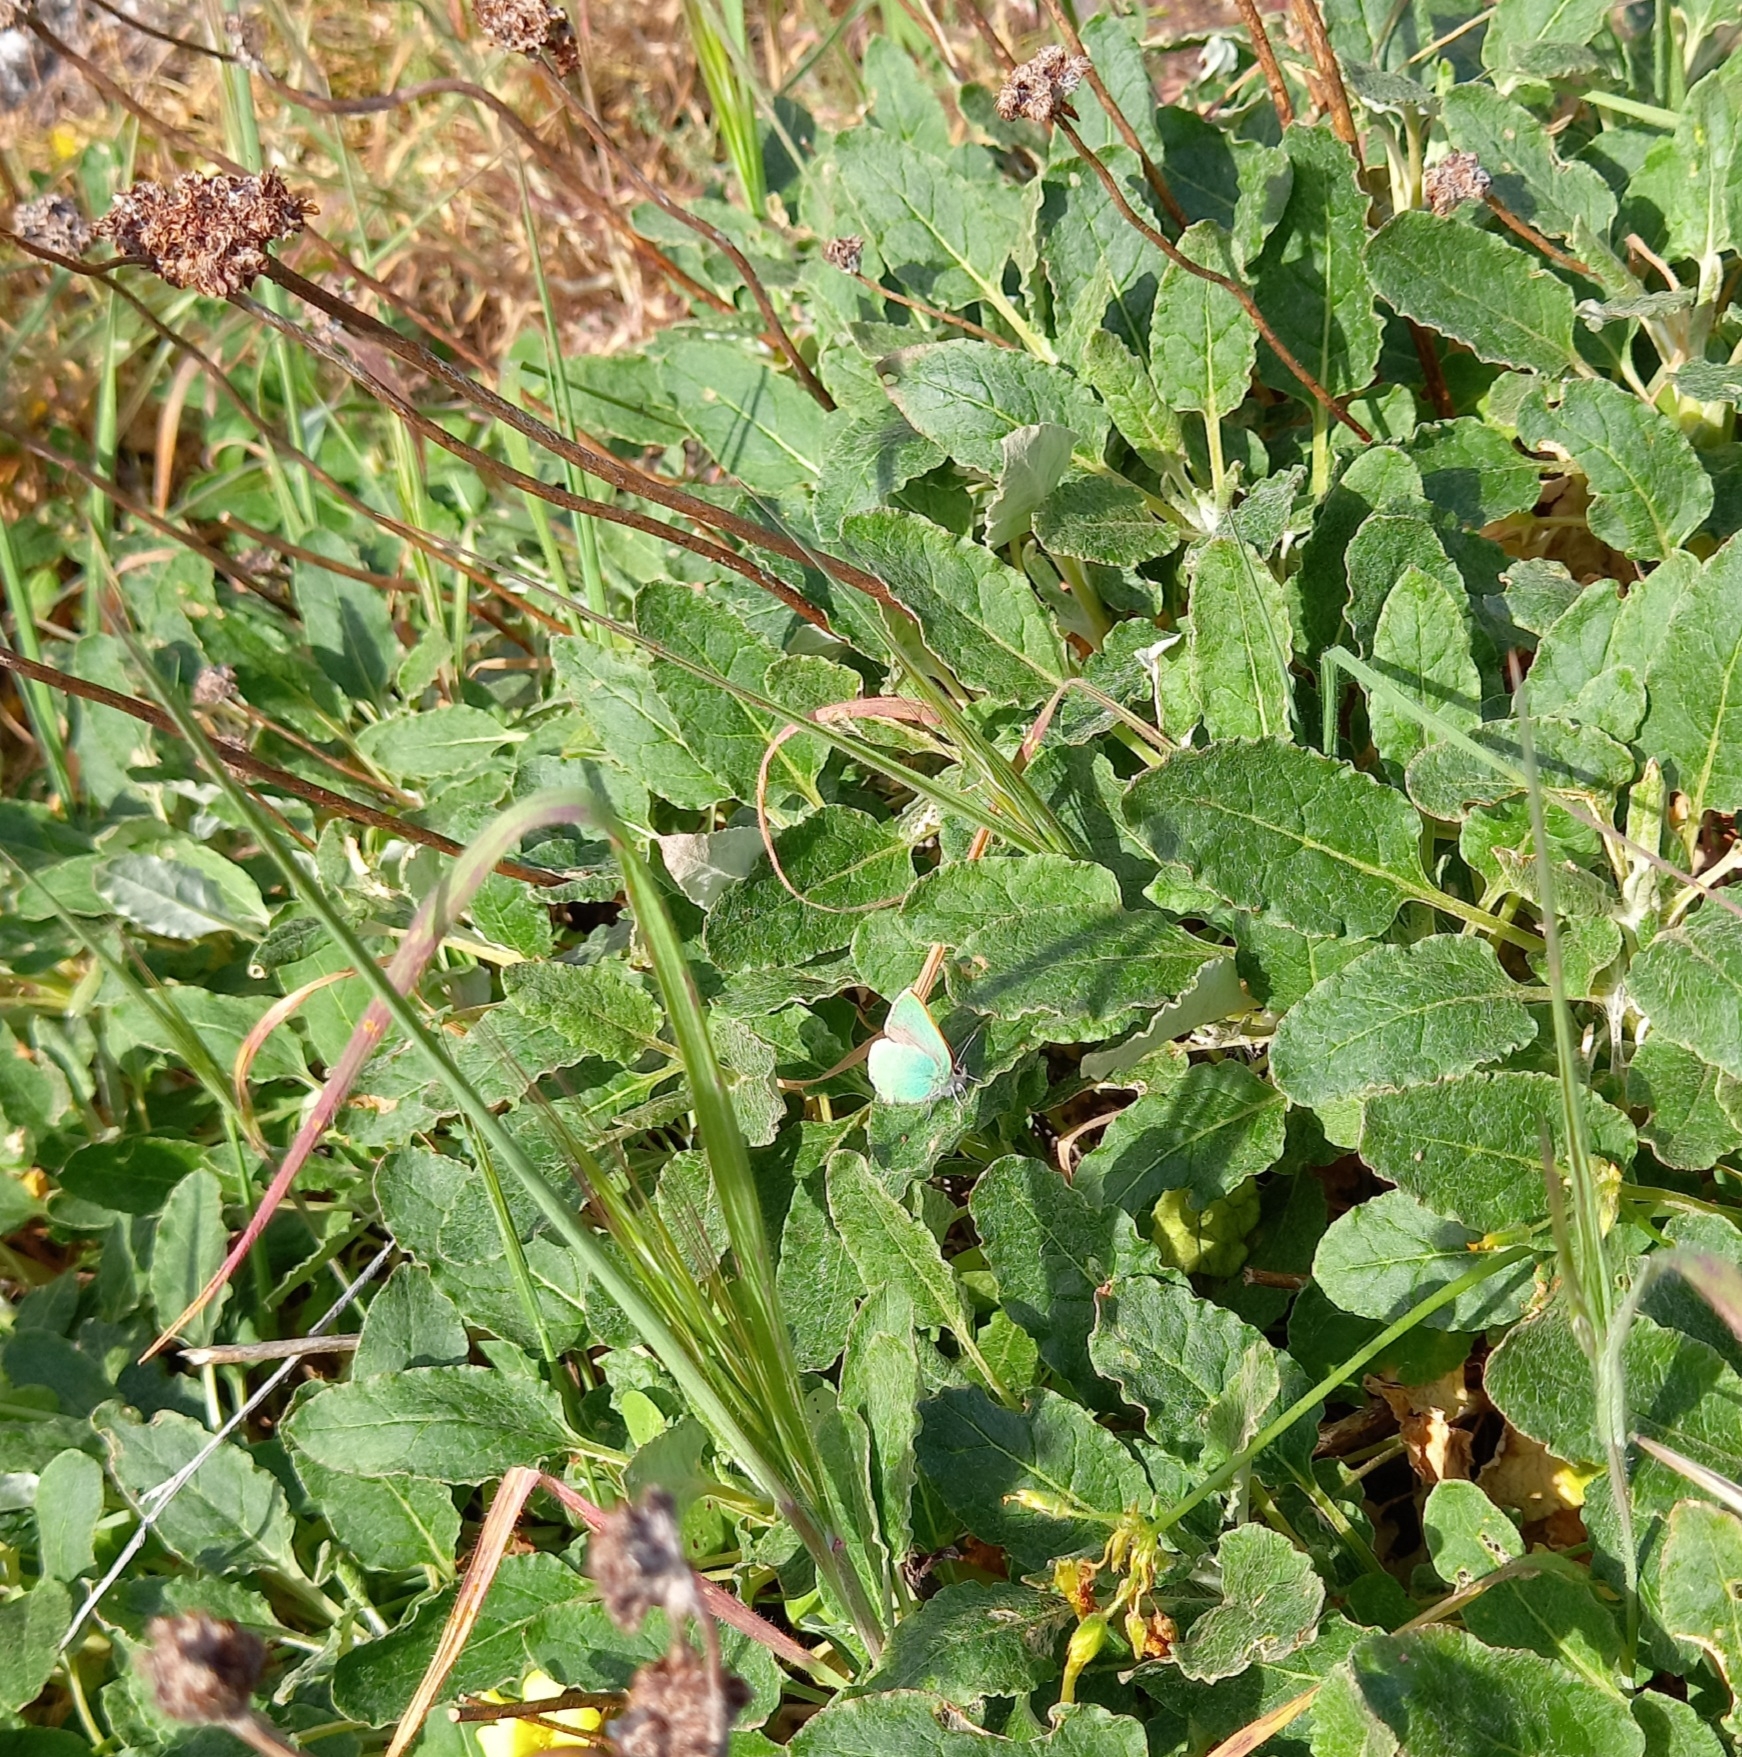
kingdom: Animalia
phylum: Arthropoda
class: Insecta
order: Lepidoptera
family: Lycaenidae
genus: Callophrys
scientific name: Callophrys viridis
